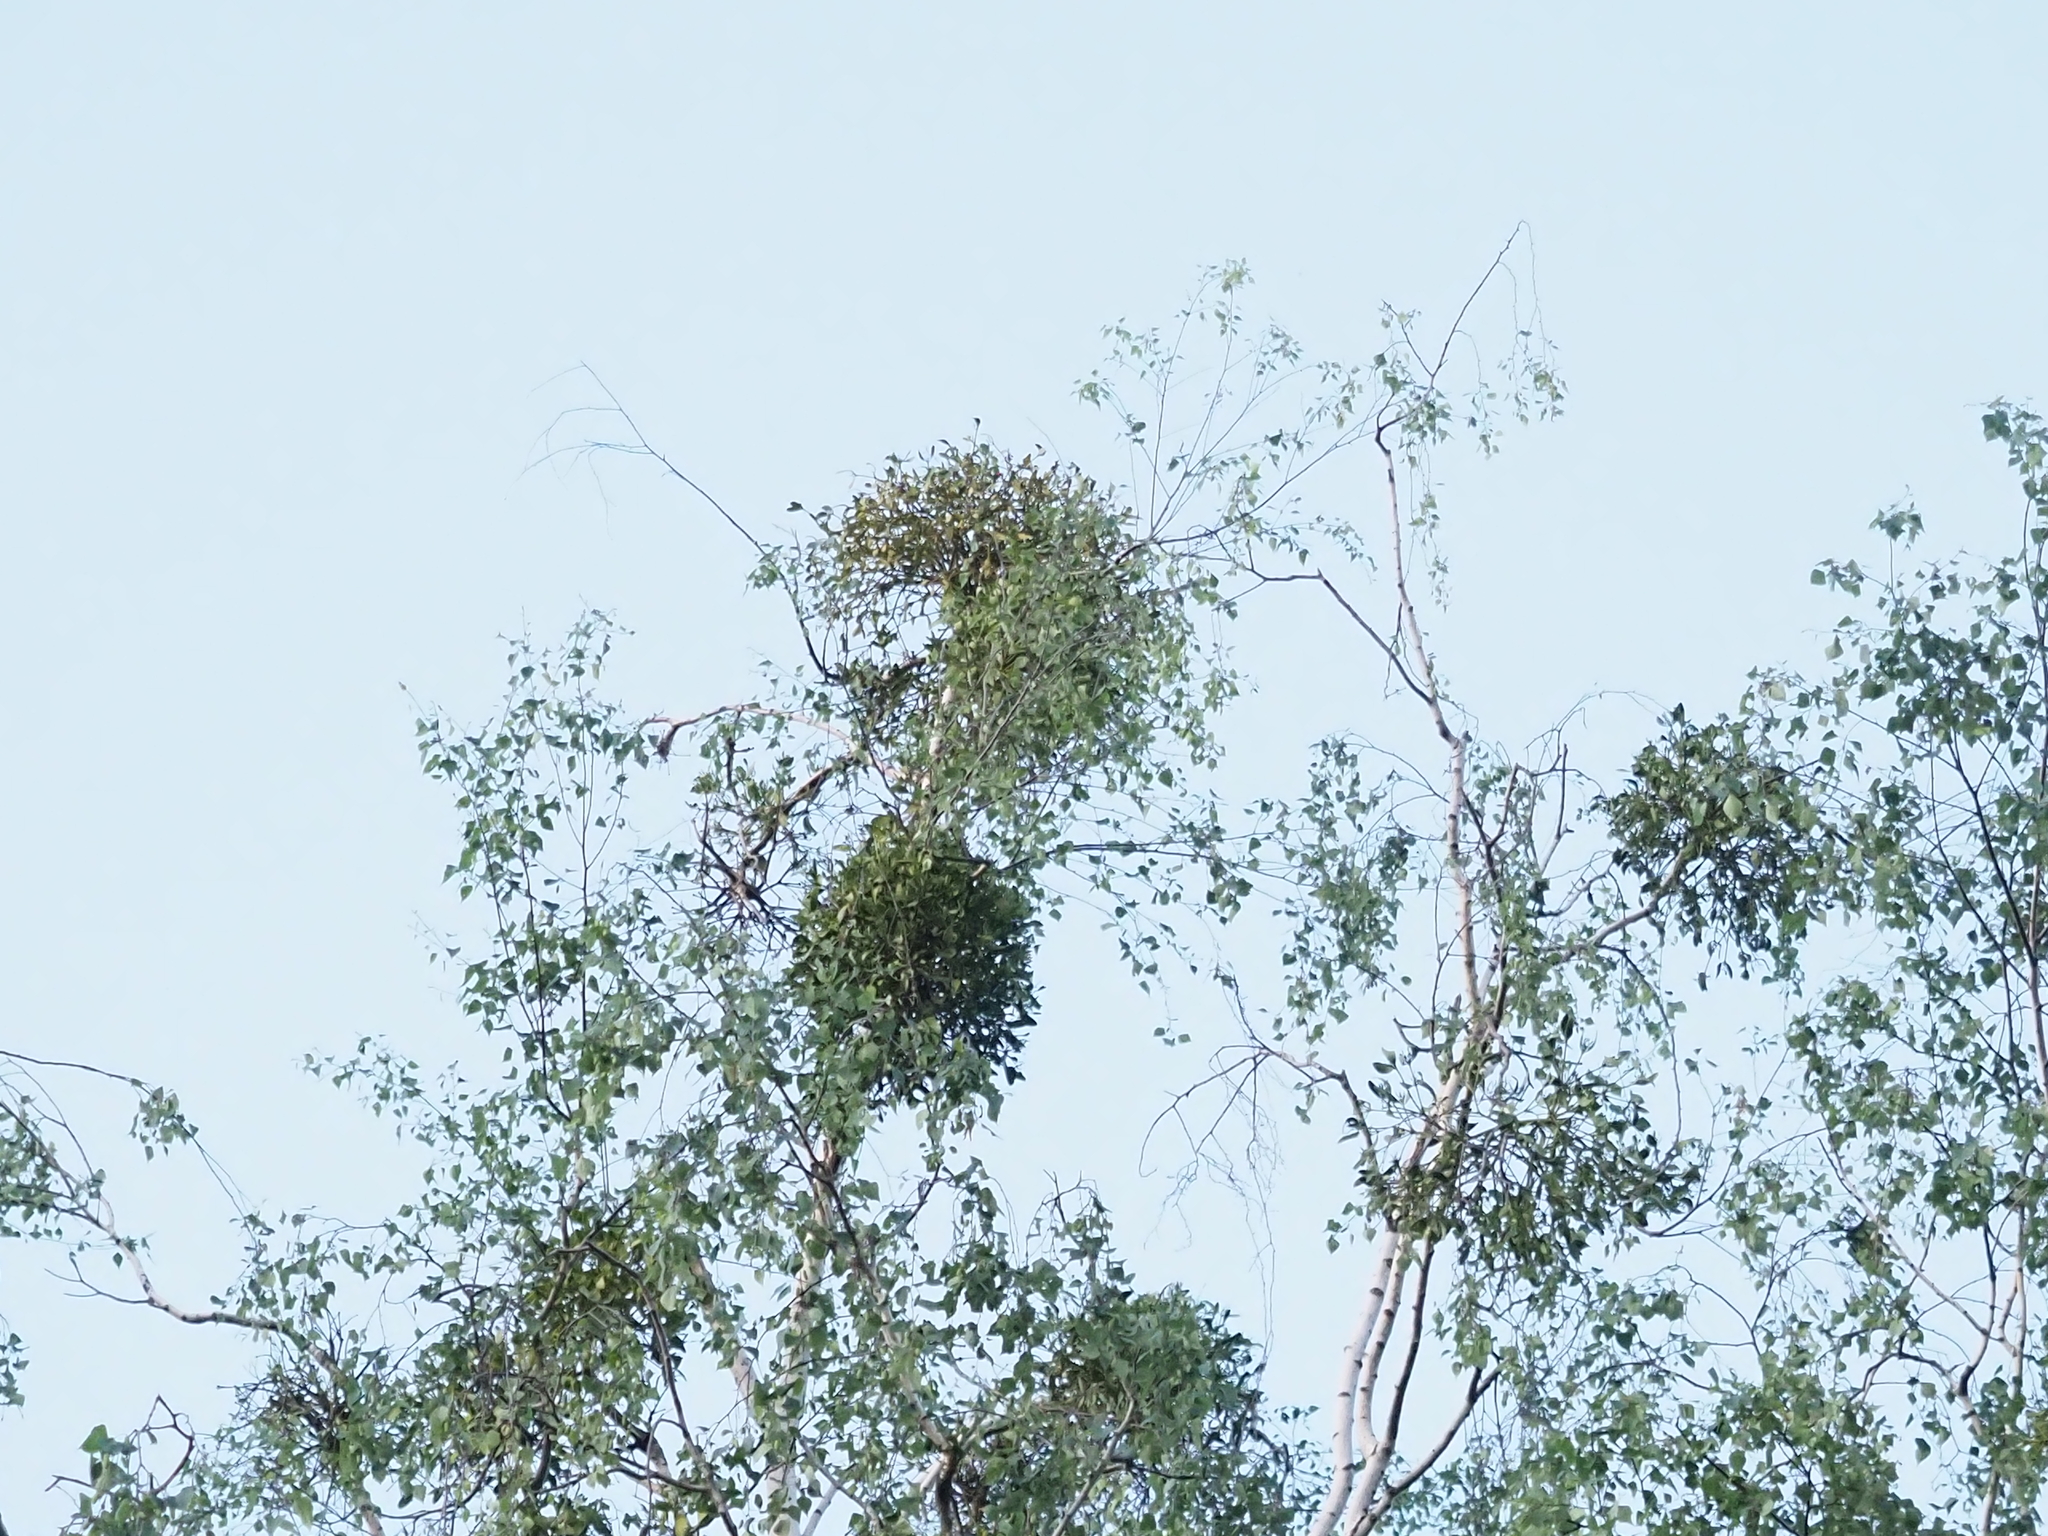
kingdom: Plantae
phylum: Tracheophyta
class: Magnoliopsida
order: Santalales
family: Viscaceae
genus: Viscum
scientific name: Viscum album
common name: Mistletoe
